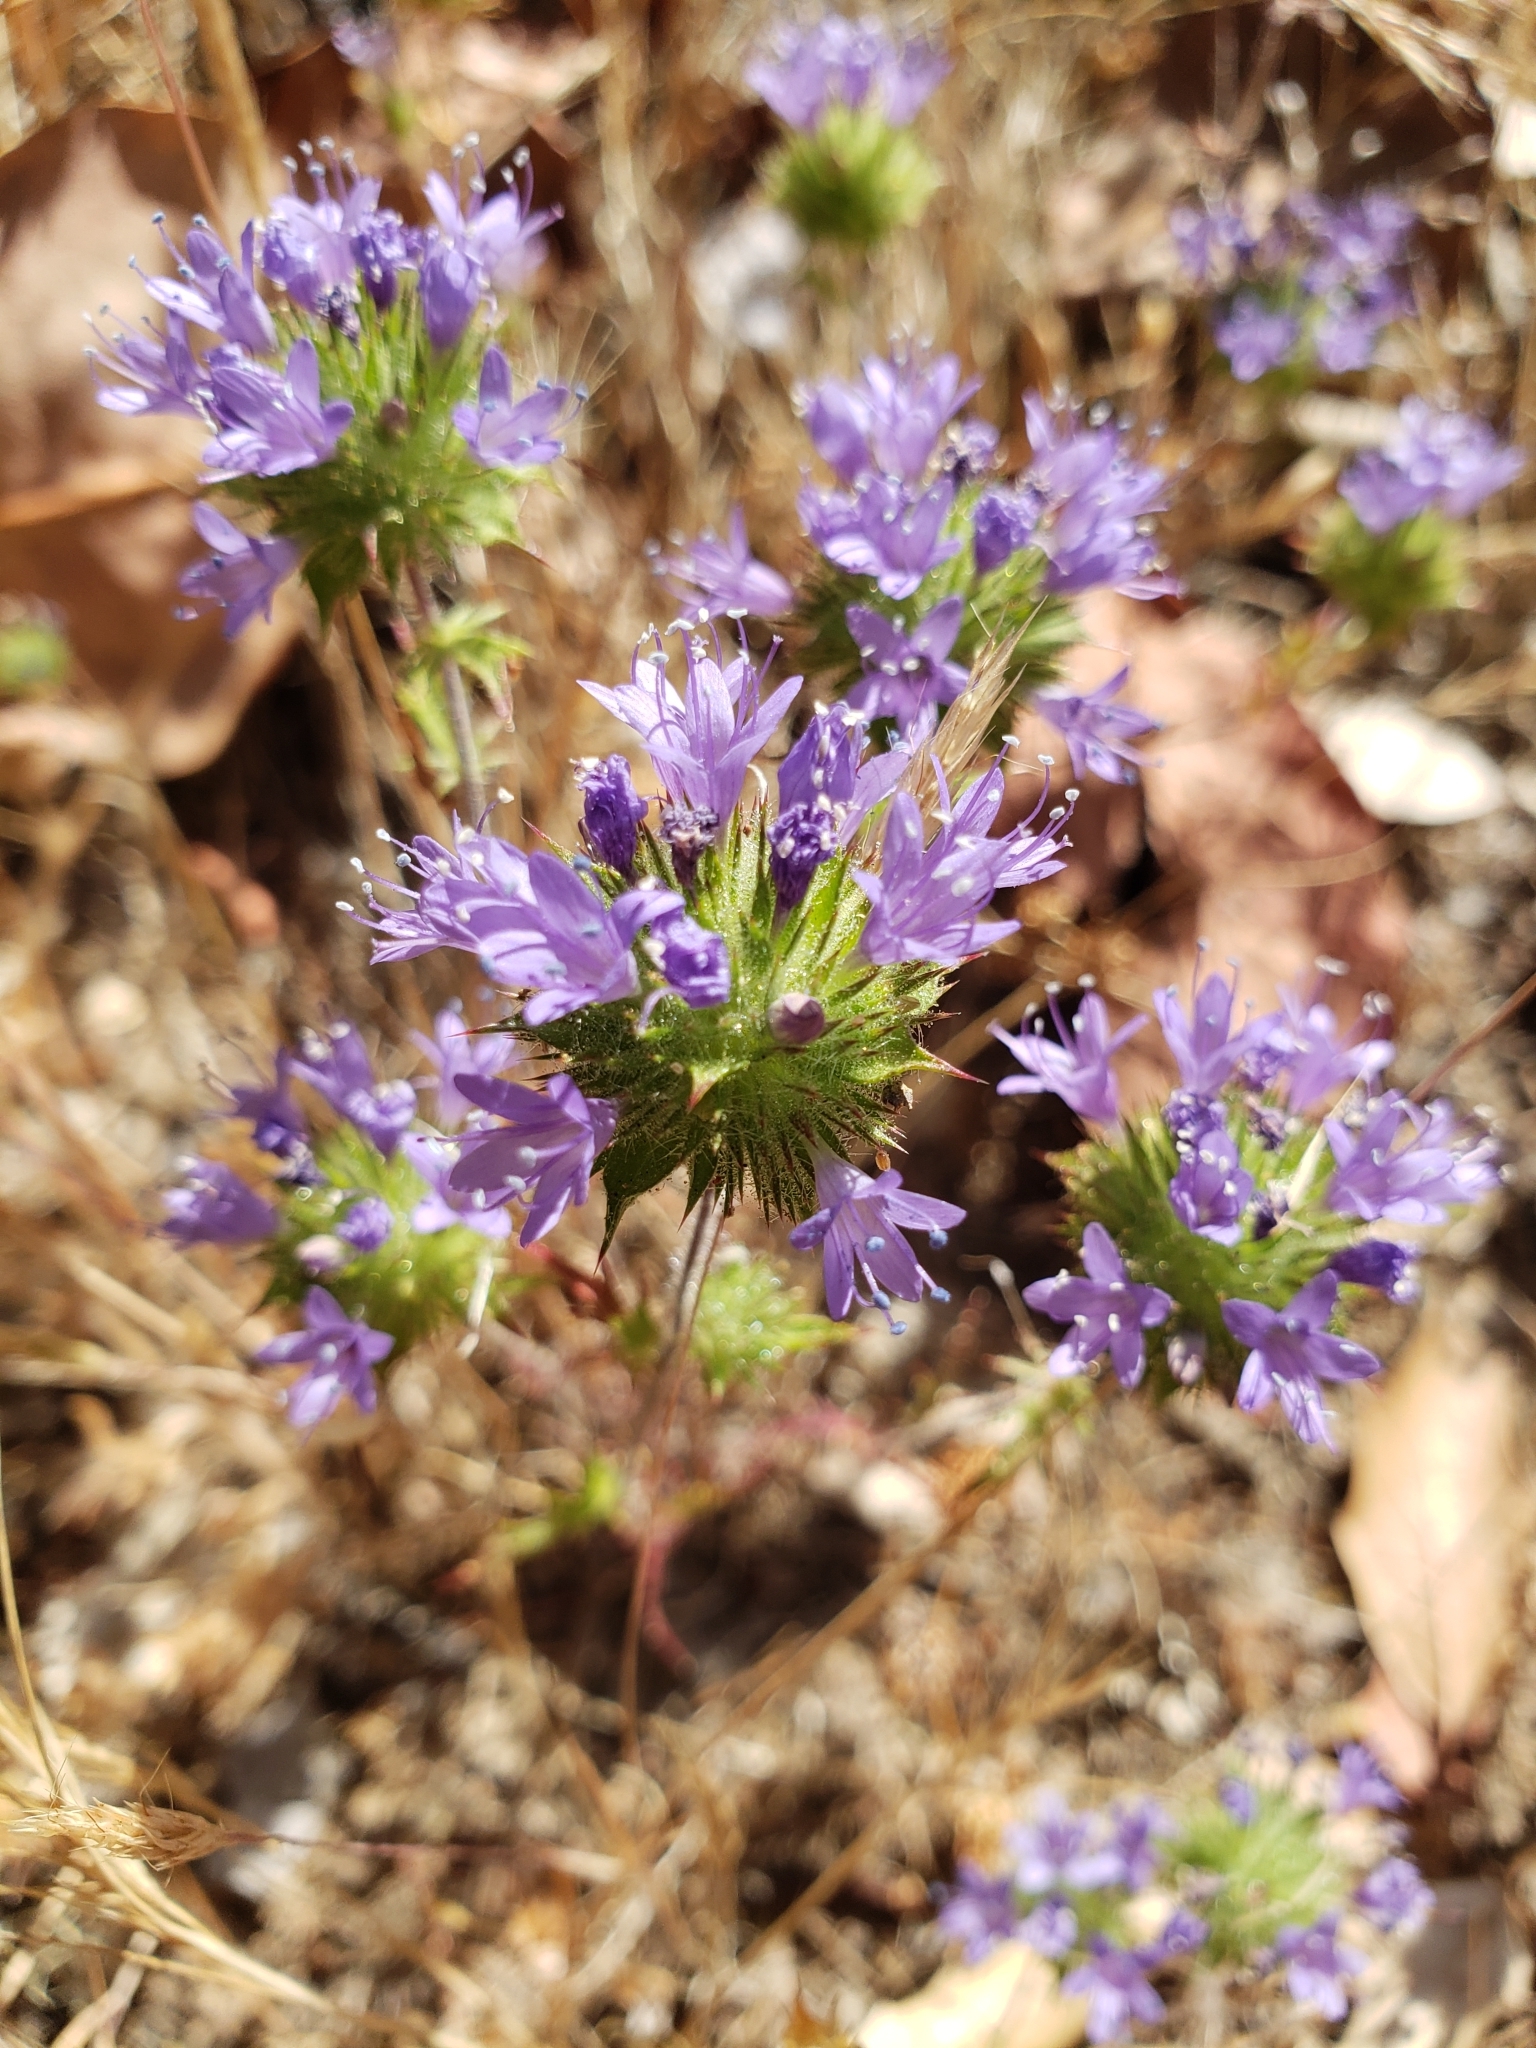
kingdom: Plantae
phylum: Tracheophyta
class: Magnoliopsida
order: Ericales
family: Polemoniaceae
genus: Navarretia
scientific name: Navarretia heterodoxa
